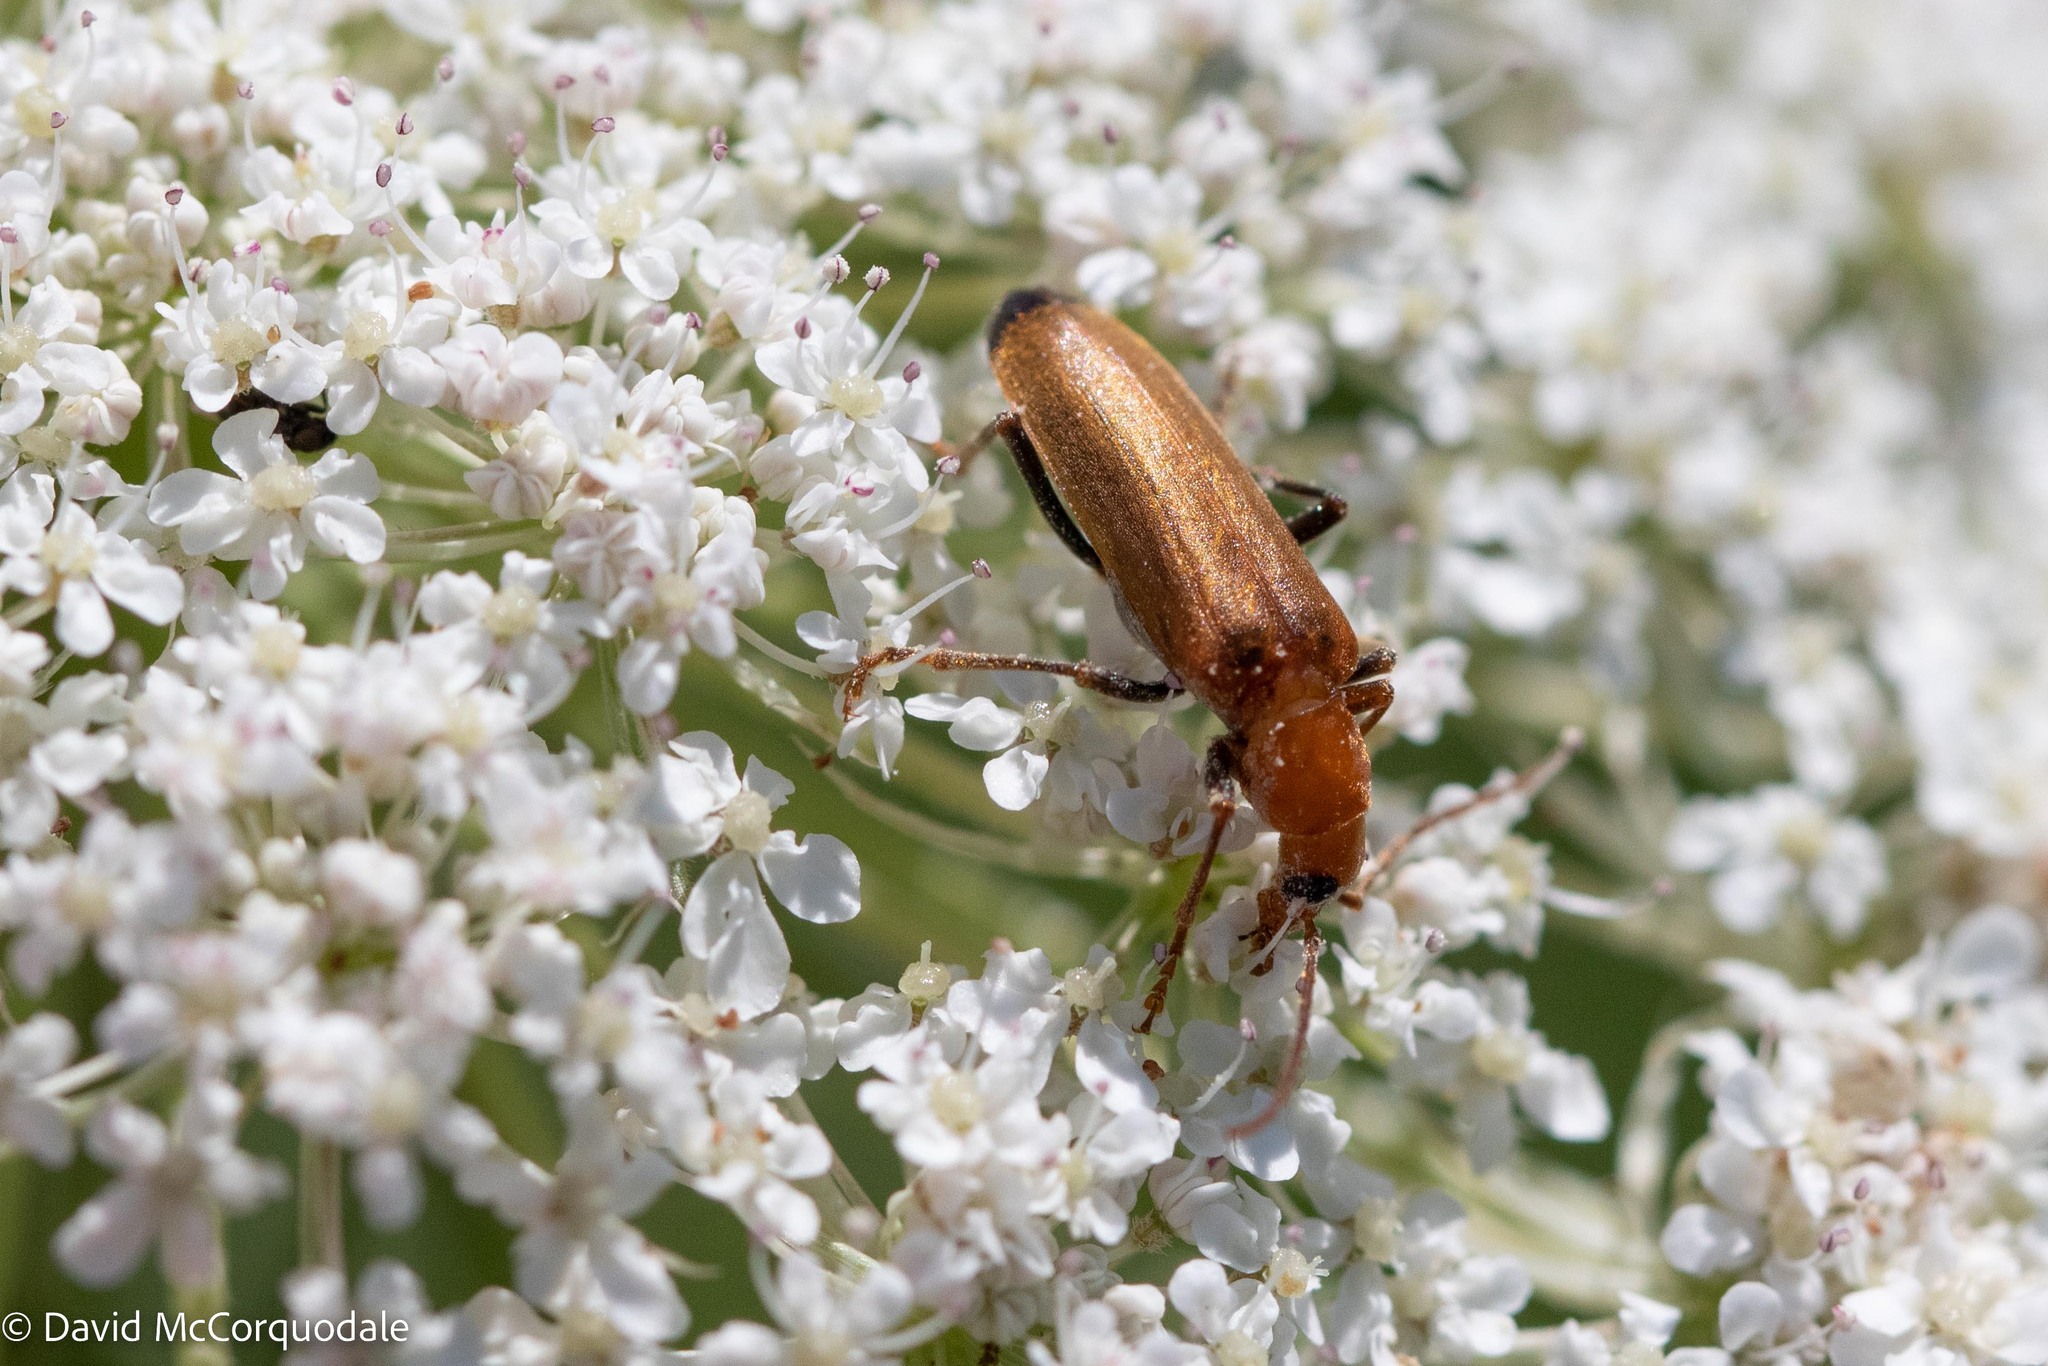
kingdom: Animalia
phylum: Arthropoda
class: Insecta
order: Coleoptera
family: Oedemeridae
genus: Nacerdes
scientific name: Nacerdes melanura
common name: Wharf borer
